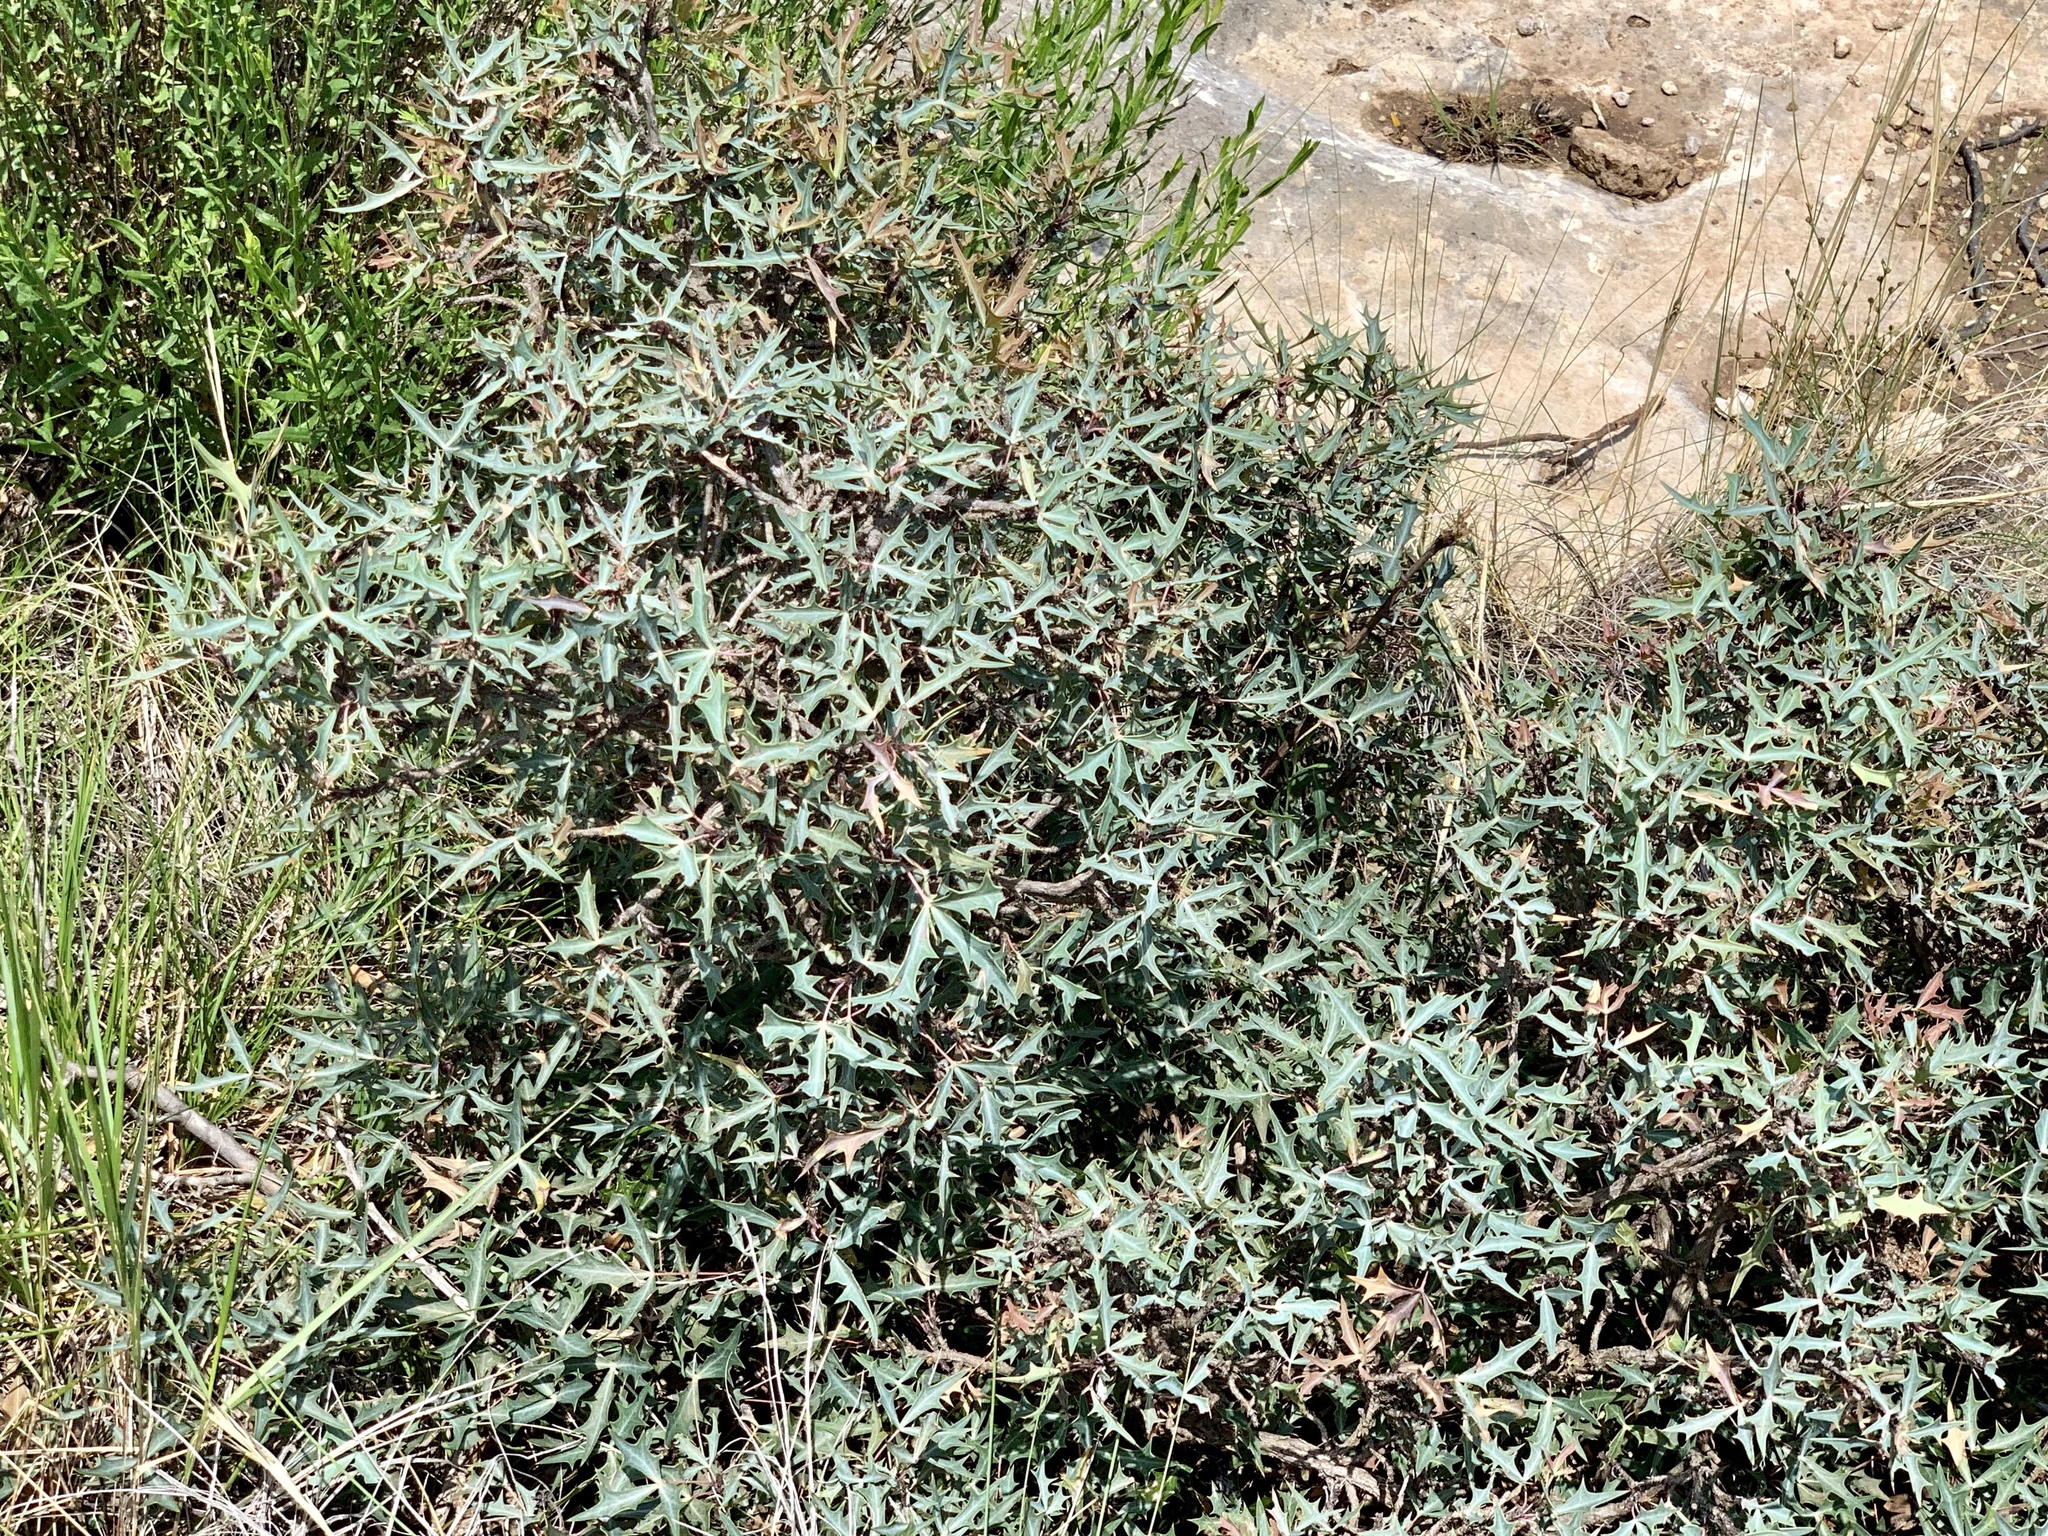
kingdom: Plantae
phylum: Tracheophyta
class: Magnoliopsida
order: Ranunculales
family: Berberidaceae
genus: Alloberberis
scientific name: Alloberberis trifoliolata
